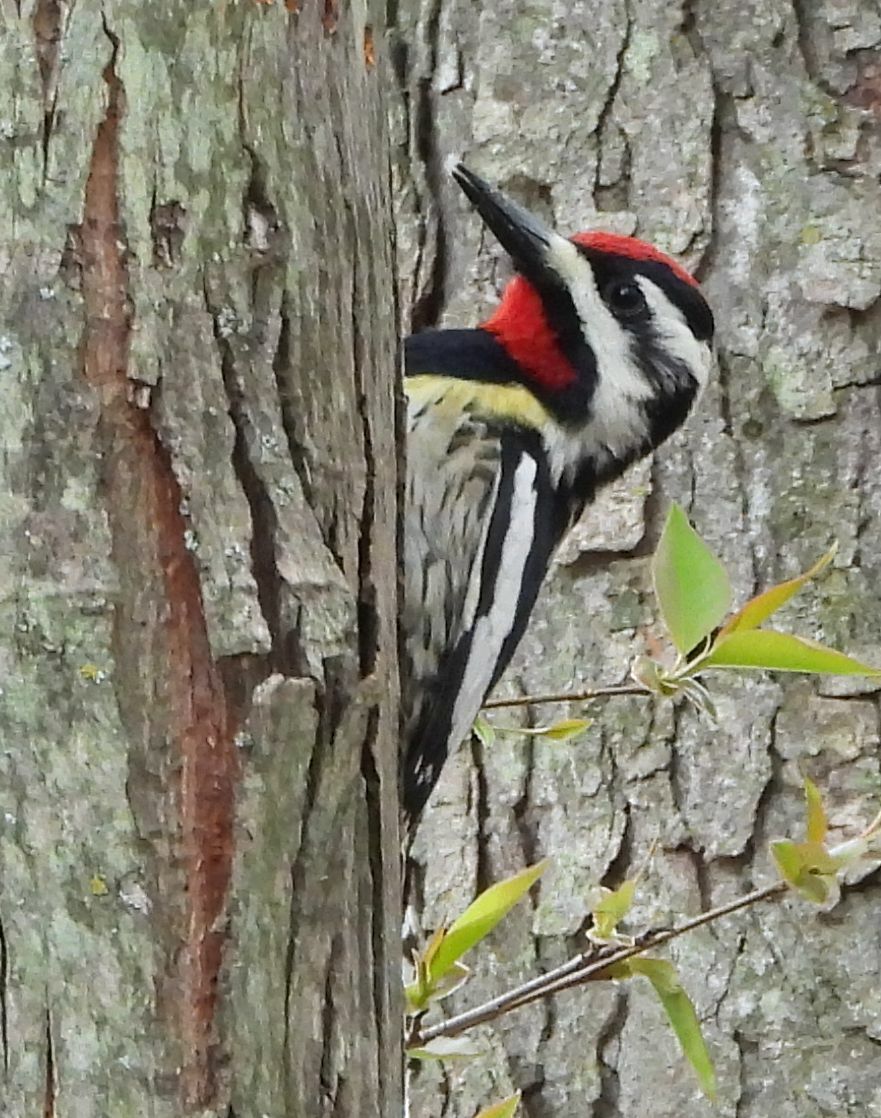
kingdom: Animalia
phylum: Chordata
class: Aves
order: Piciformes
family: Picidae
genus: Sphyrapicus
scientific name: Sphyrapicus varius
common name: Yellow-bellied sapsucker
